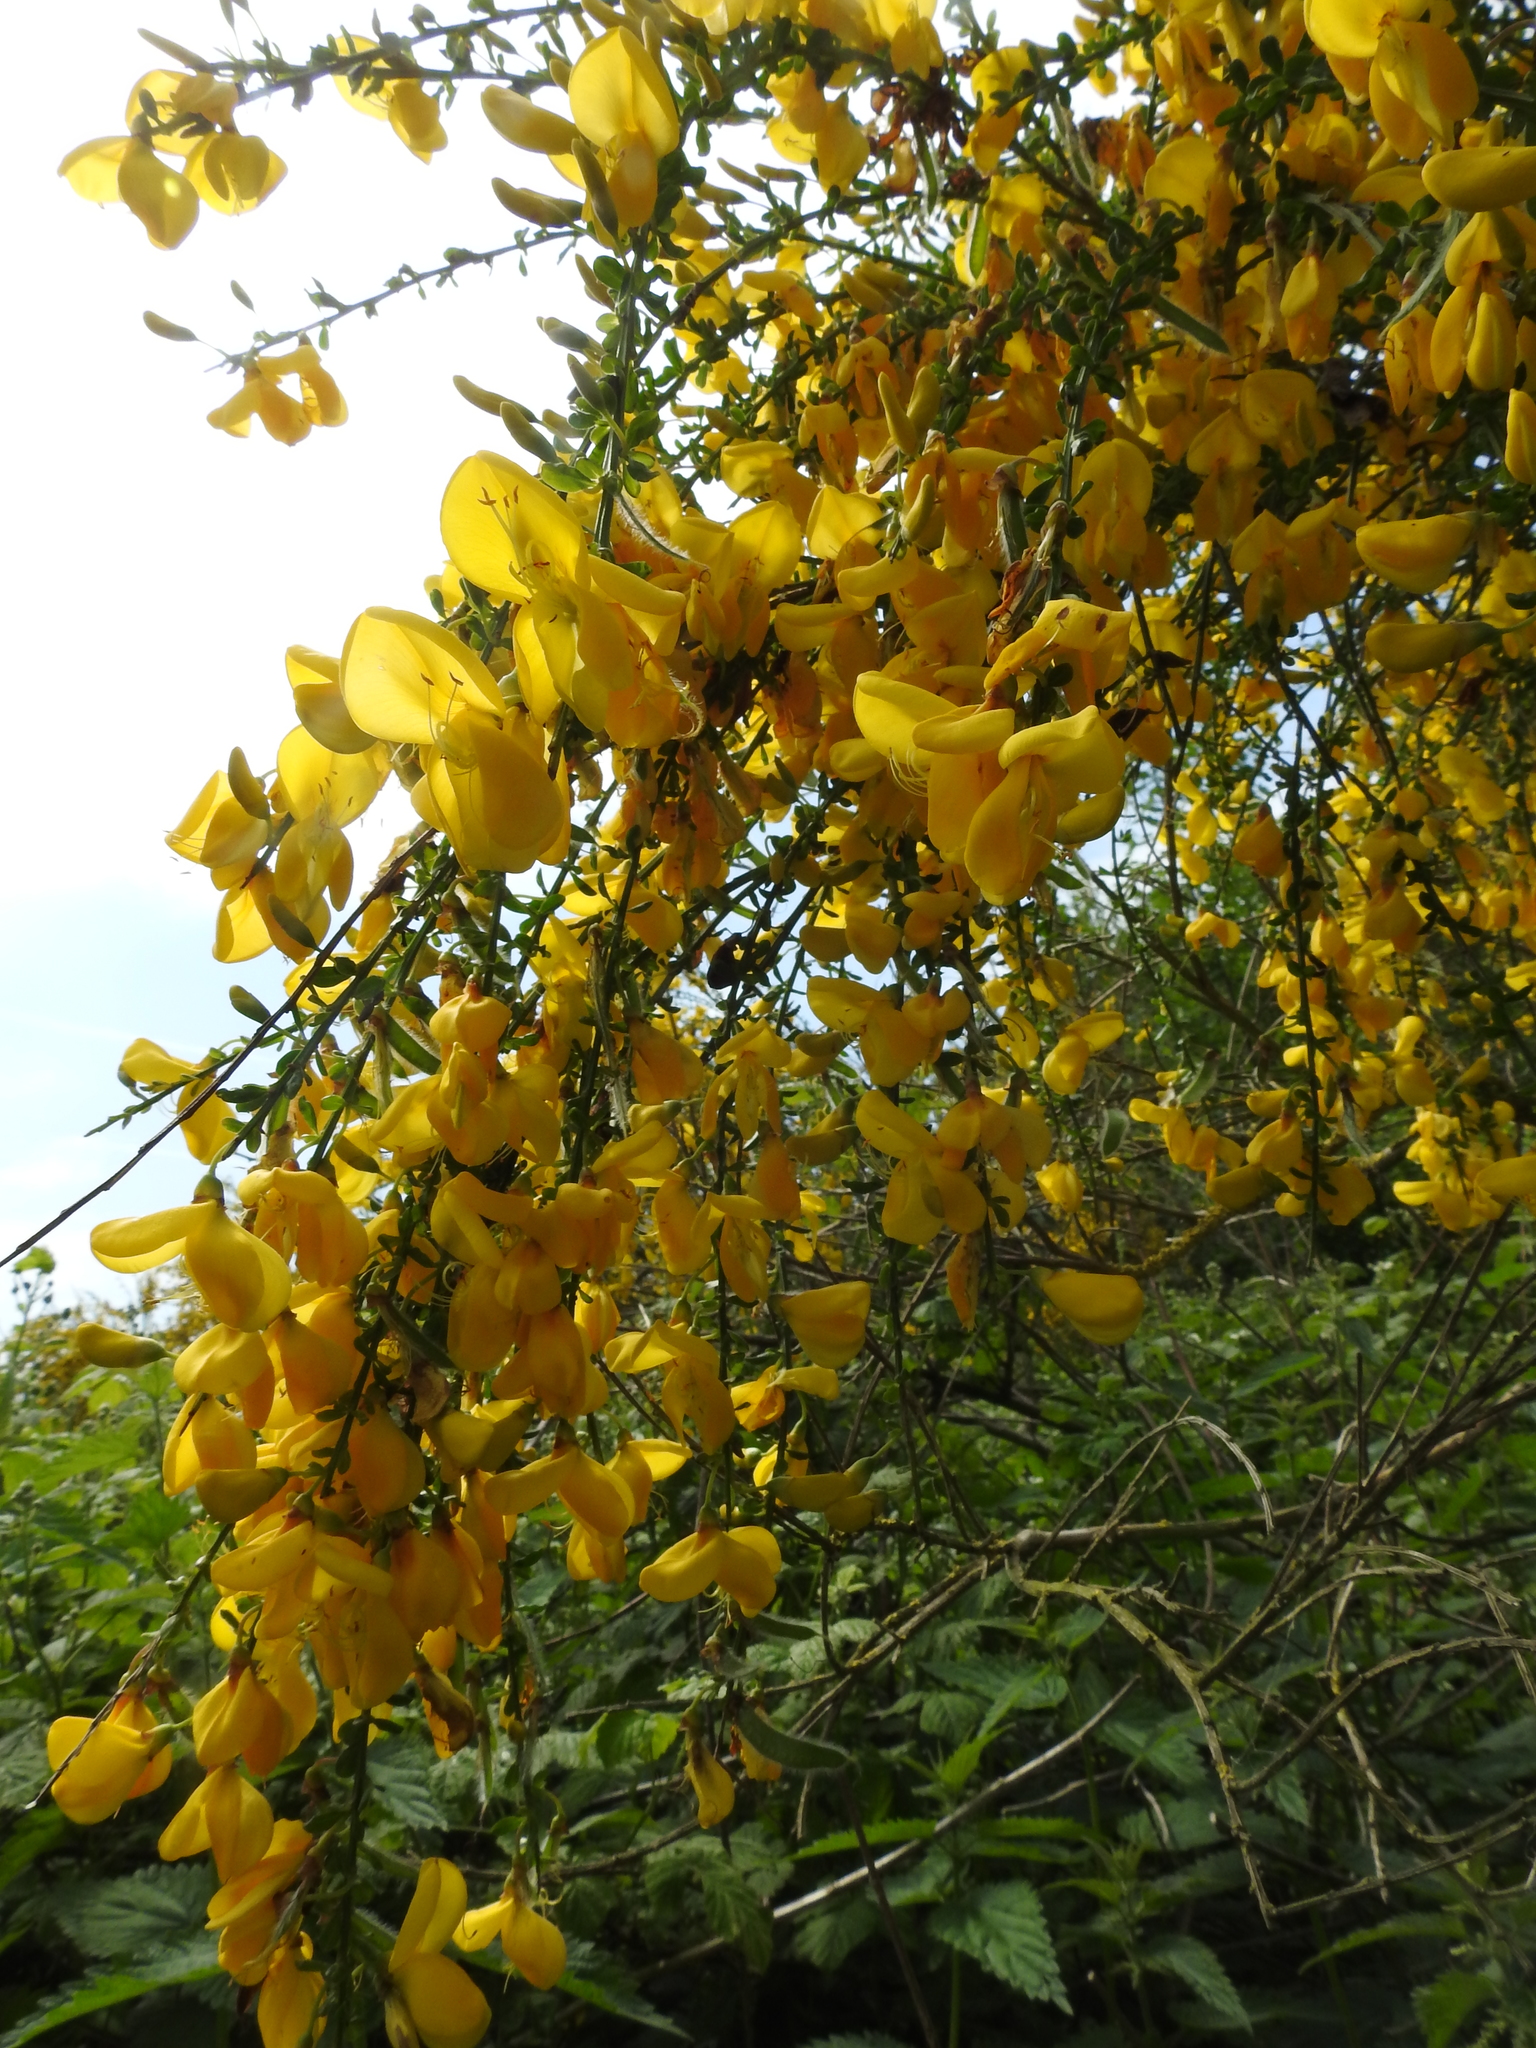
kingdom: Plantae
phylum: Tracheophyta
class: Magnoliopsida
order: Fabales
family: Fabaceae
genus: Cytisus
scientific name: Cytisus scoparius
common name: Scotch broom
